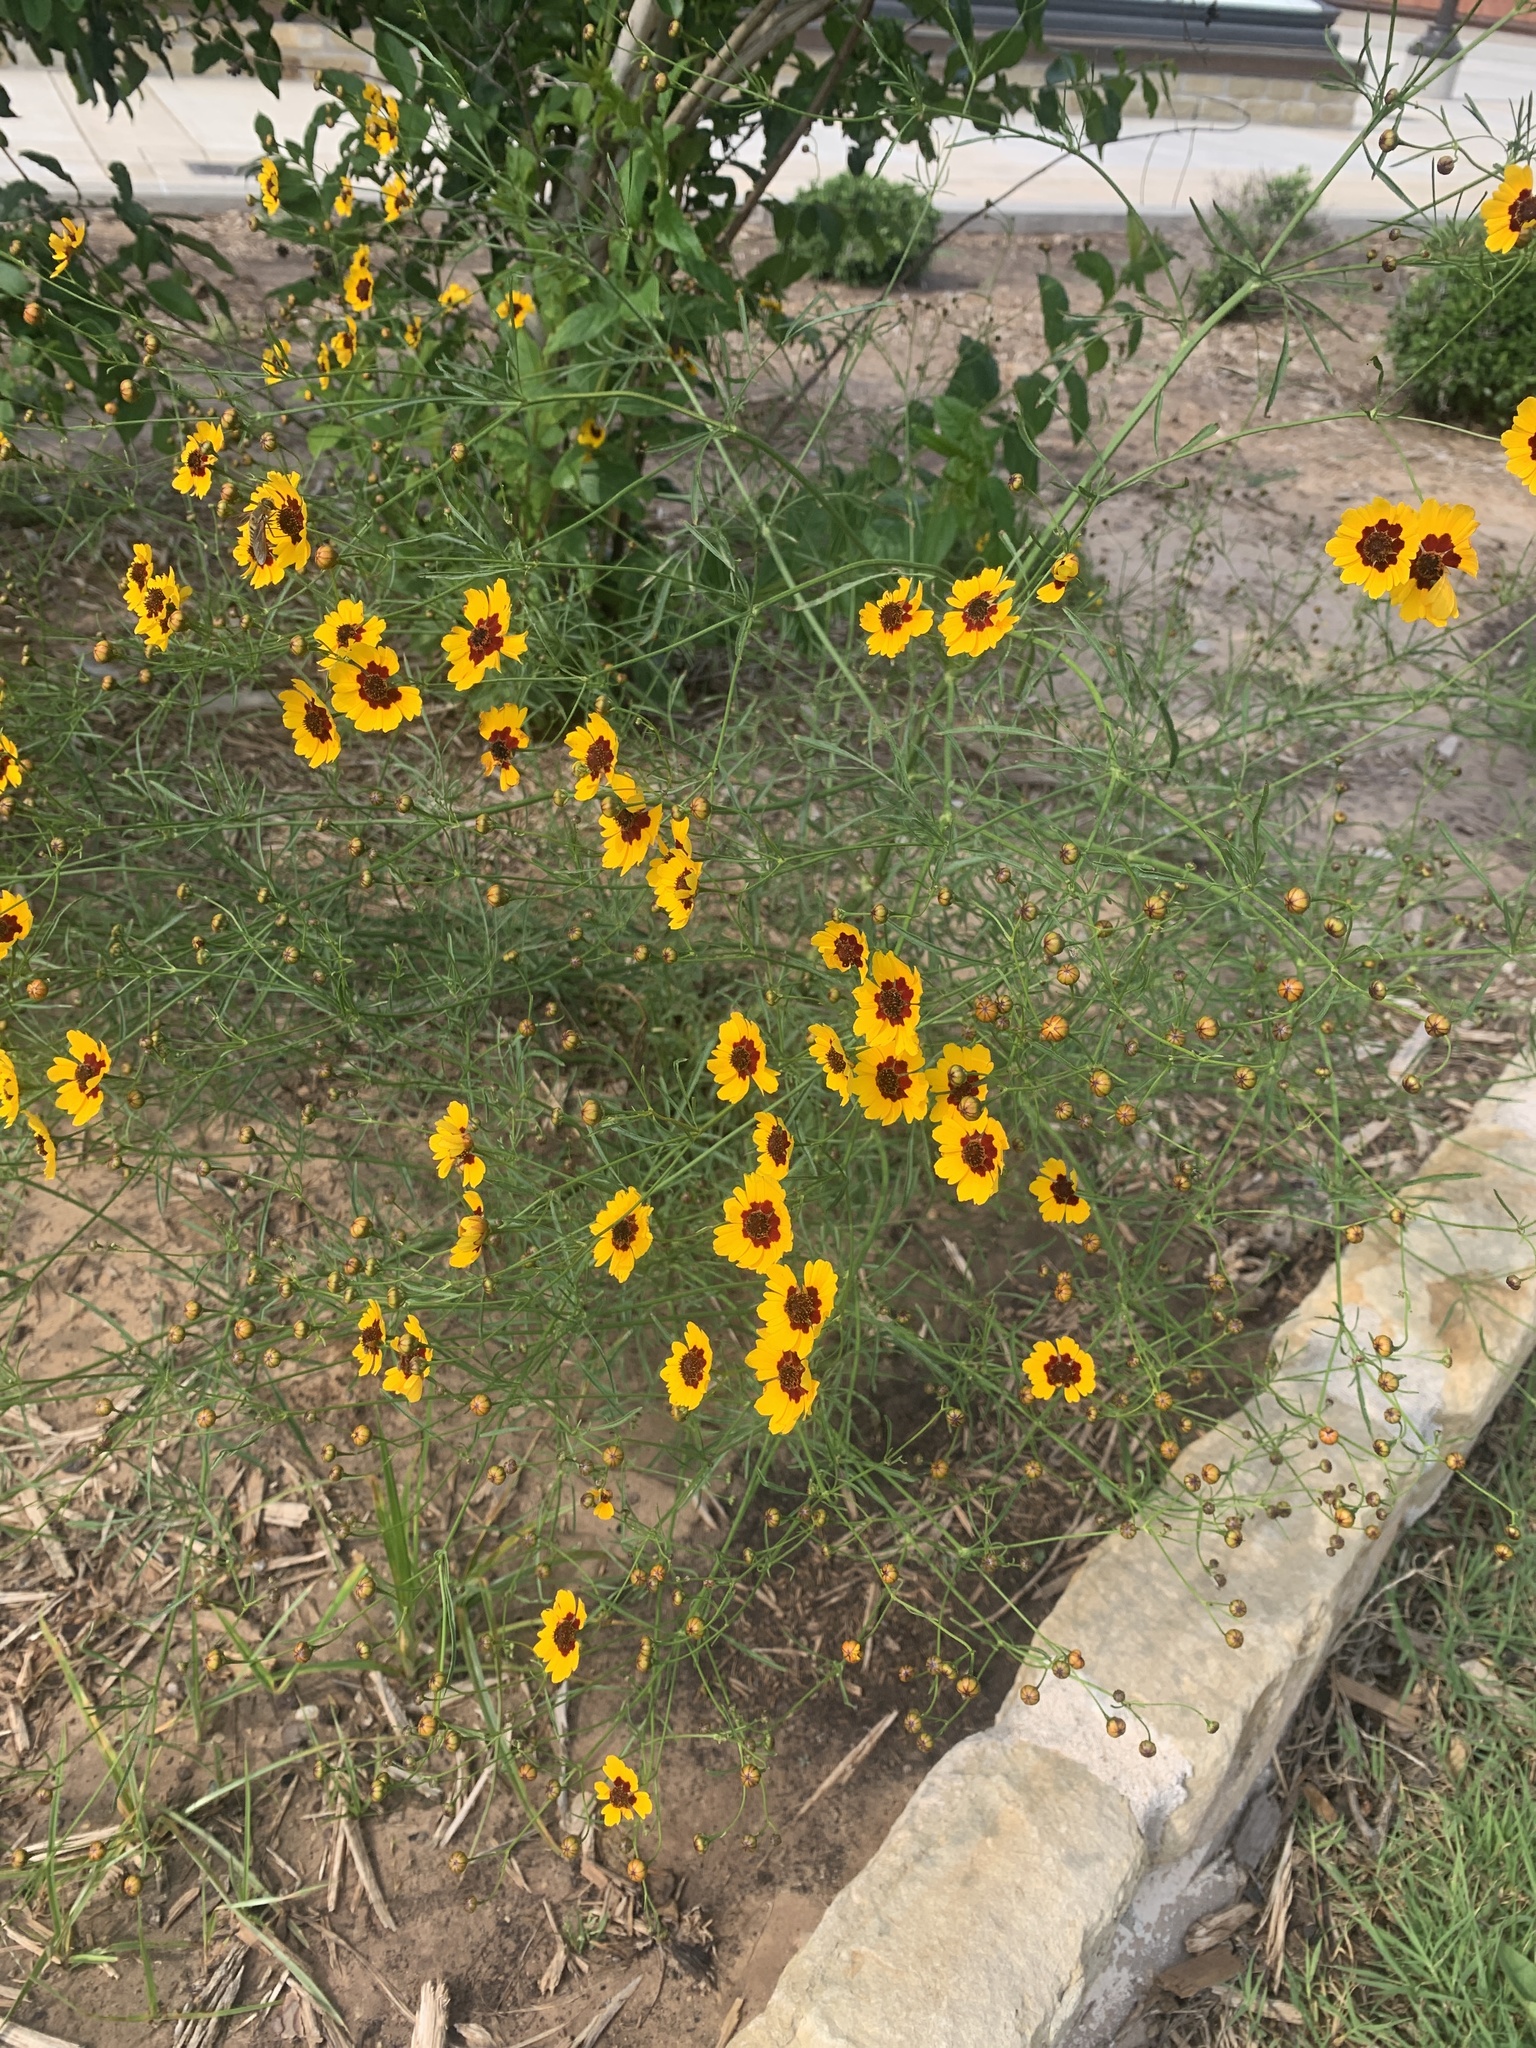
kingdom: Plantae
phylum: Tracheophyta
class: Magnoliopsida
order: Asterales
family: Asteraceae
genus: Coreopsis
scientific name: Coreopsis tinctoria
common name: Garden tickseed
